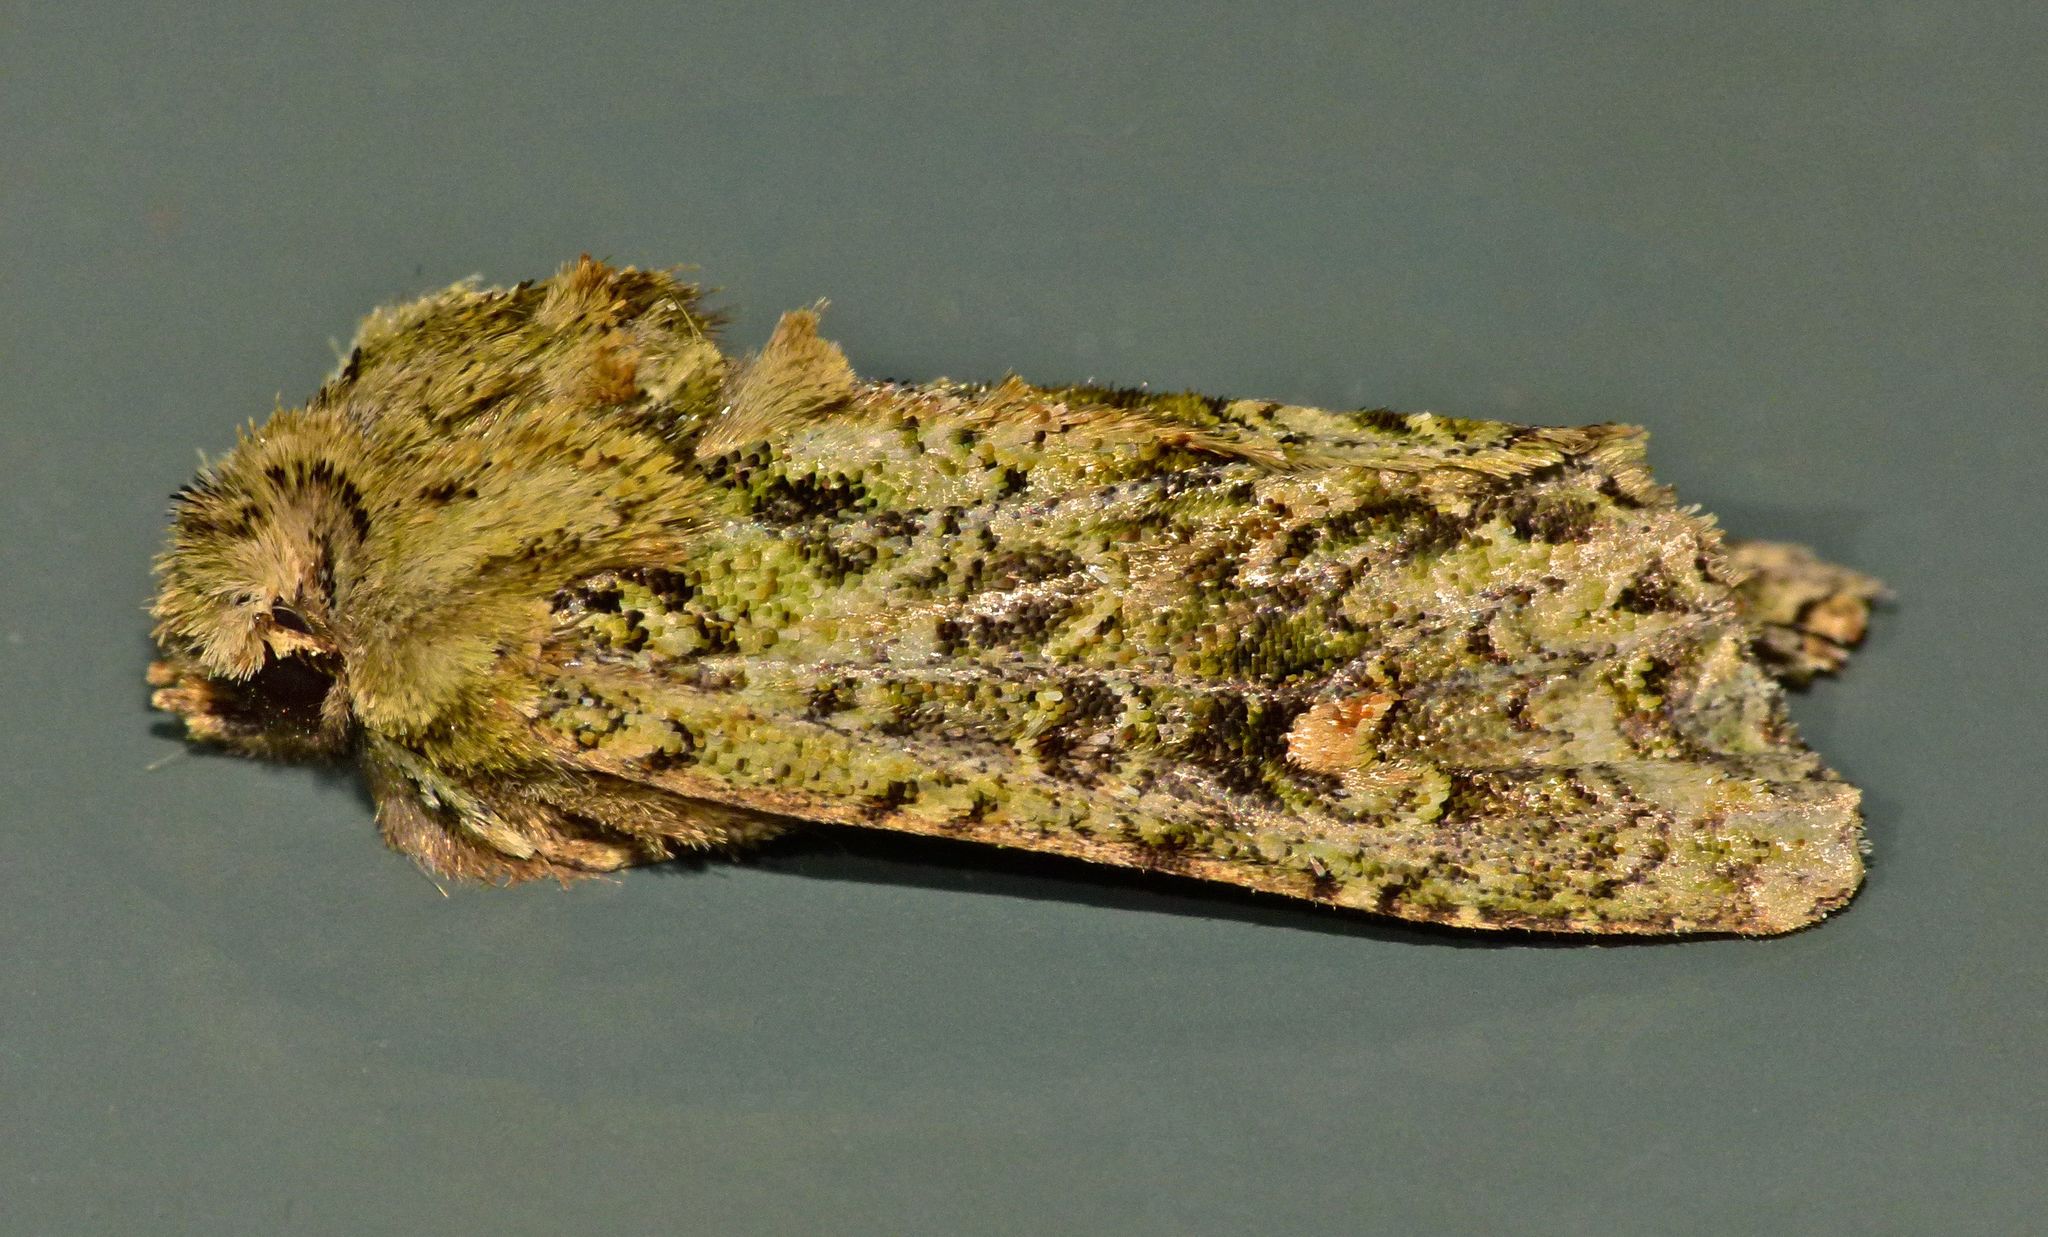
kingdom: Animalia
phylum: Arthropoda
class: Insecta
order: Lepidoptera
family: Noctuidae
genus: Ichneutica
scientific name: Ichneutica
